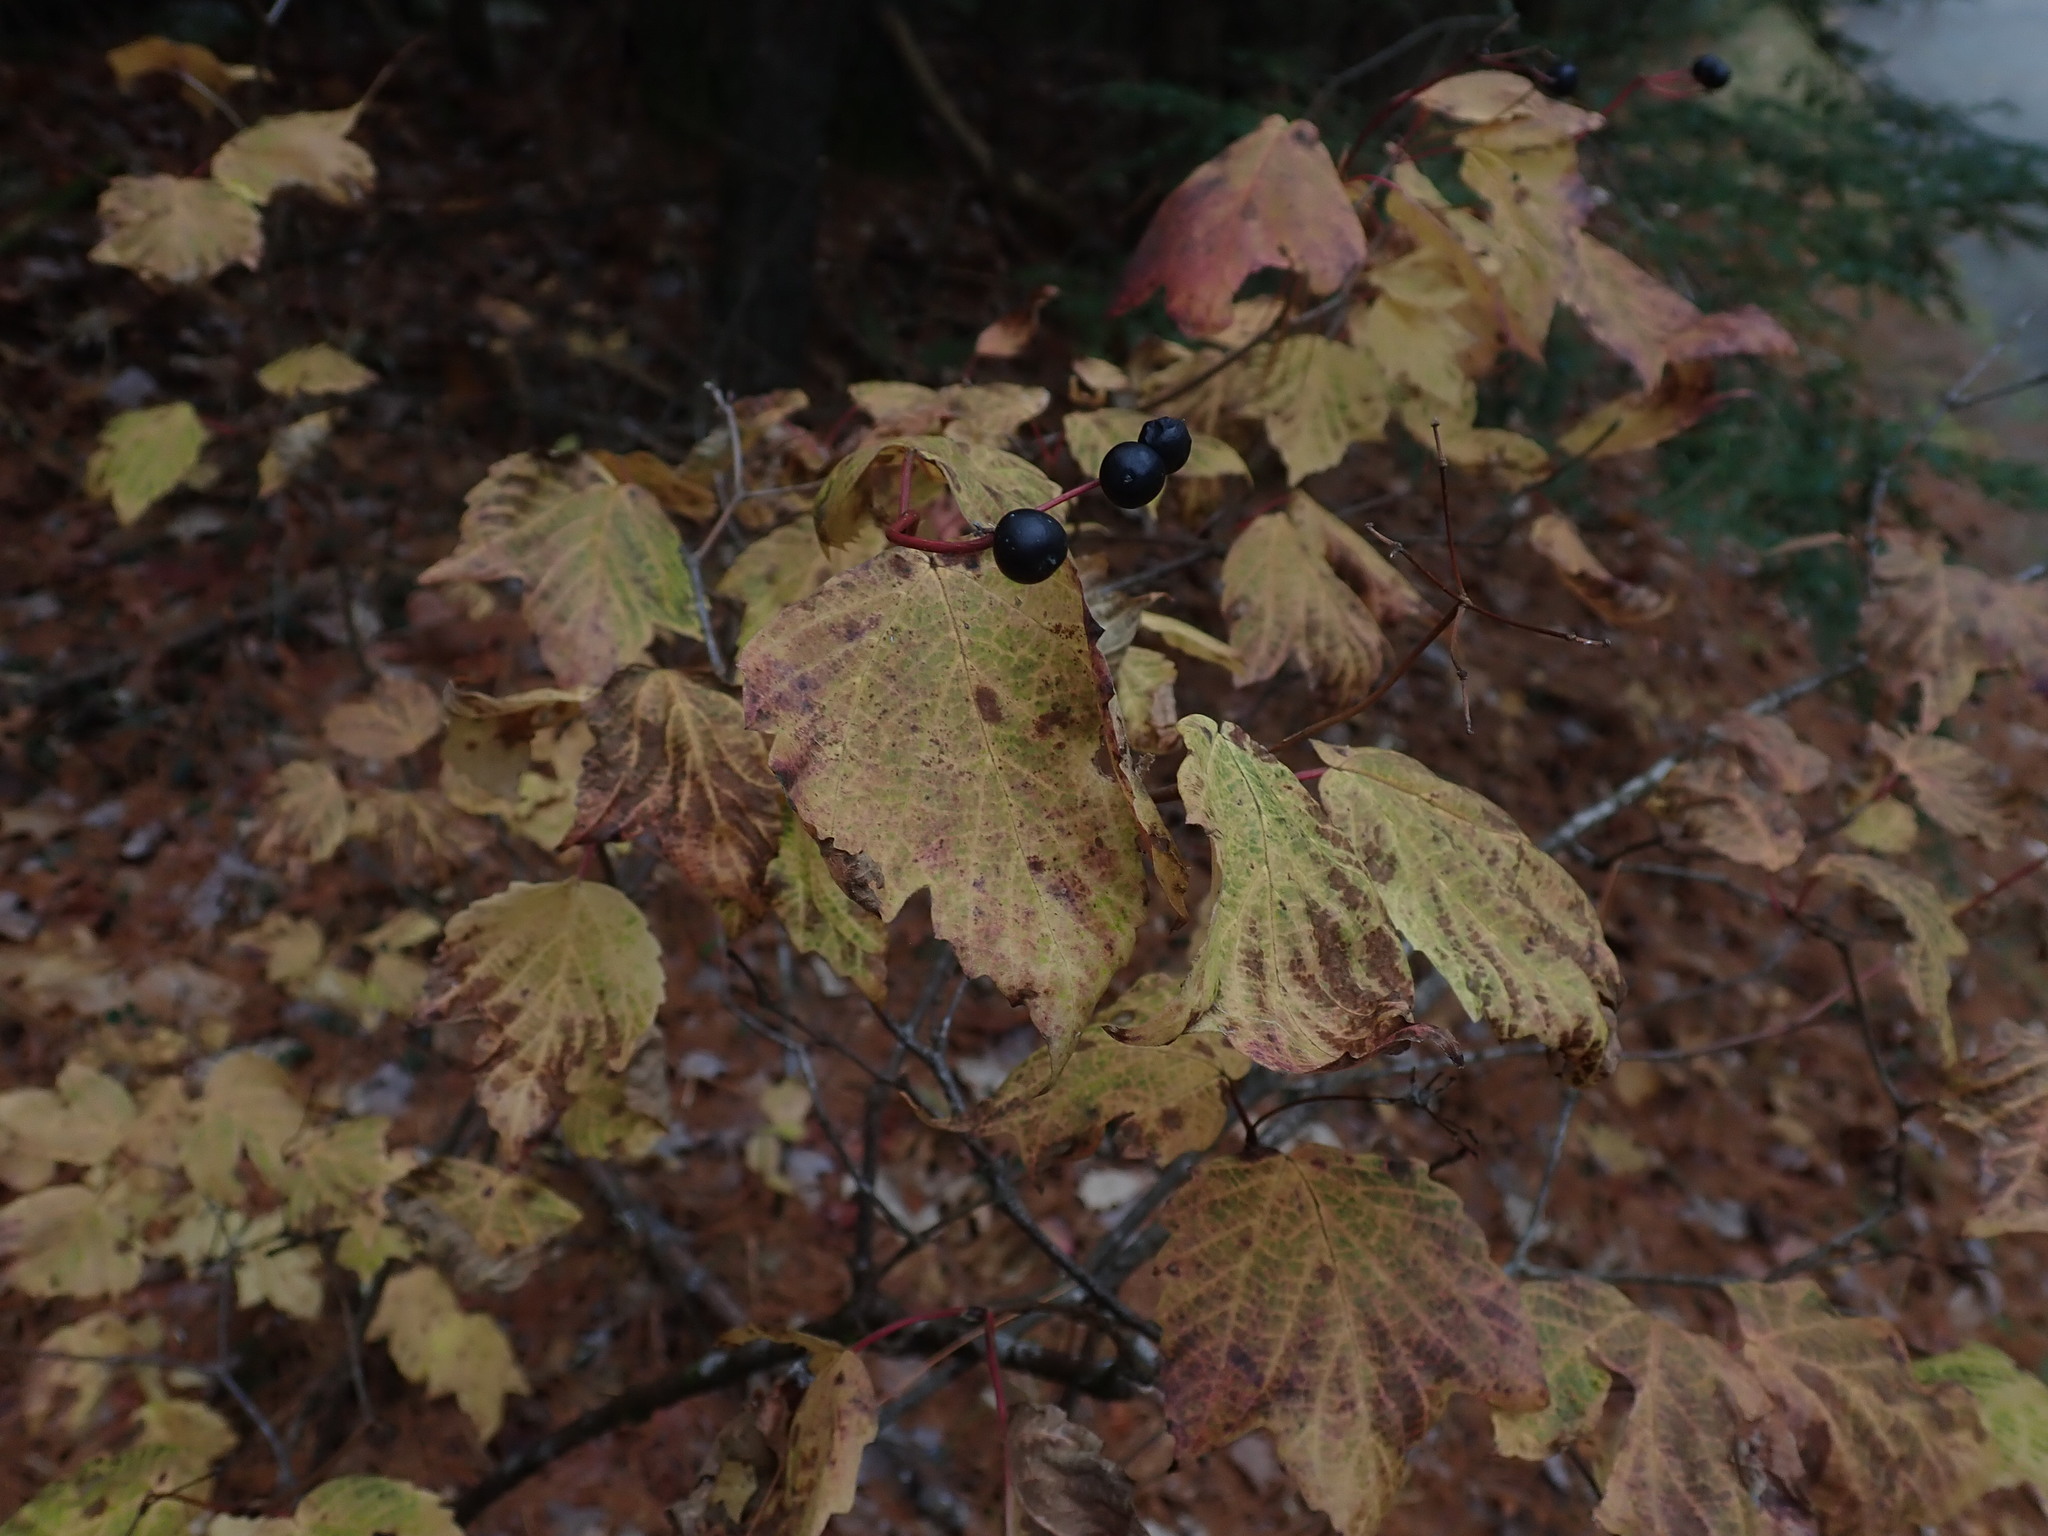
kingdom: Plantae
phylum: Tracheophyta
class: Magnoliopsida
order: Dipsacales
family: Viburnaceae
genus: Viburnum
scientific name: Viburnum acerifolium
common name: Dockmackie
